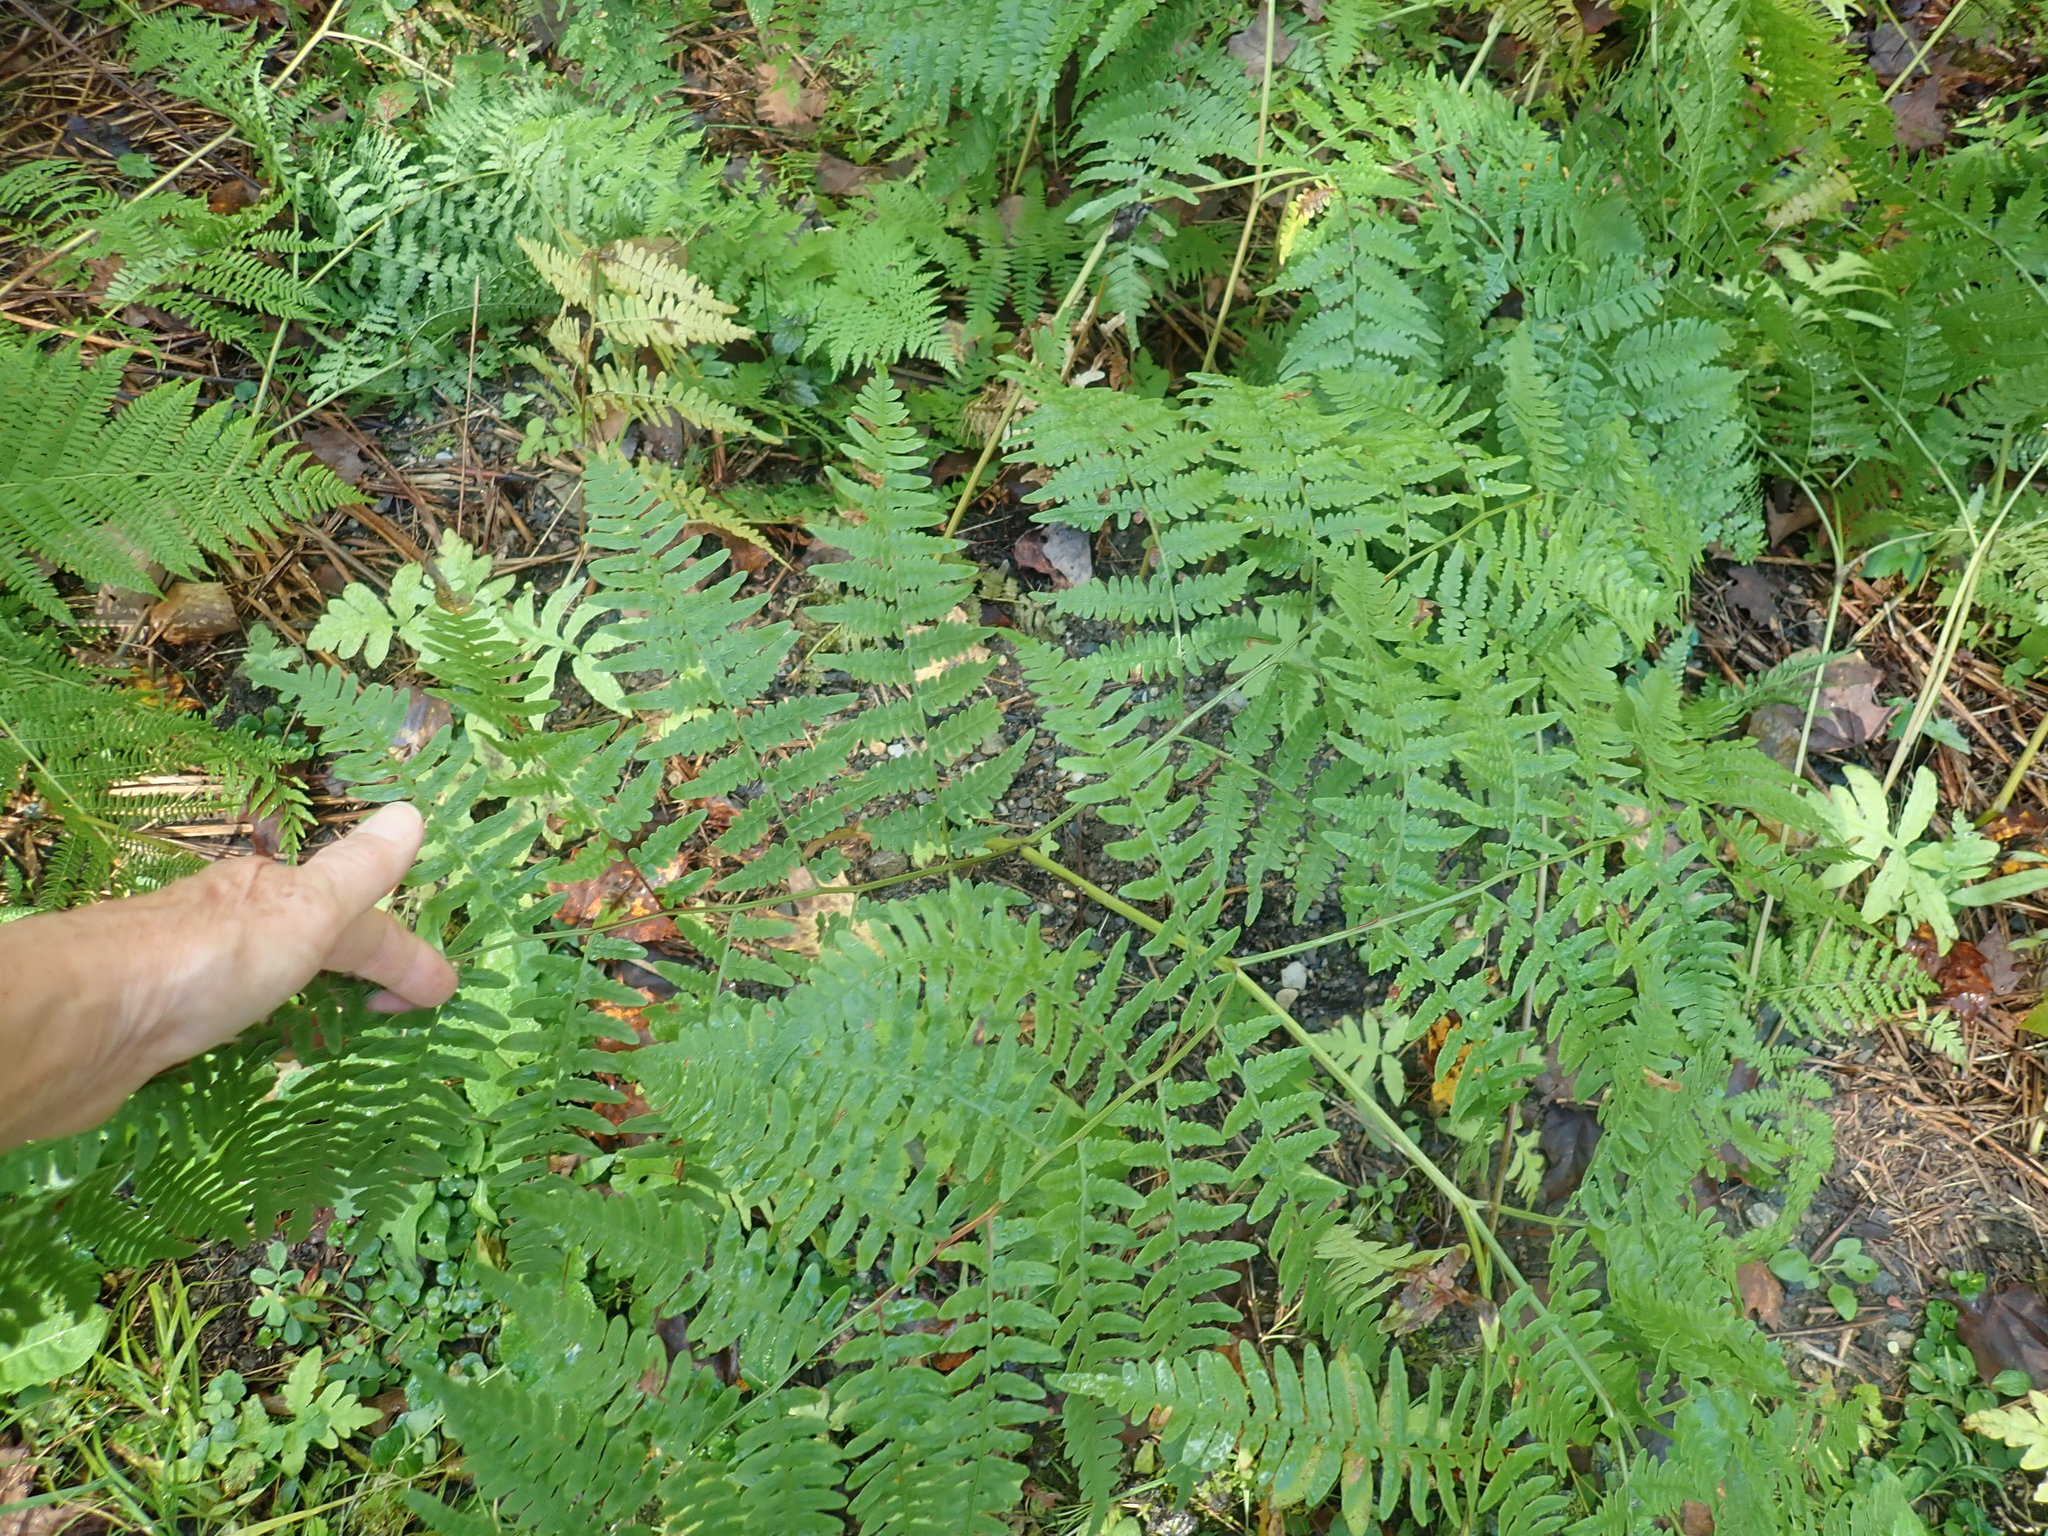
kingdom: Plantae
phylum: Tracheophyta
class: Polypodiopsida
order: Polypodiales
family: Dennstaedtiaceae
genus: Pteridium
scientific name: Pteridium aquilinum
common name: Bracken
